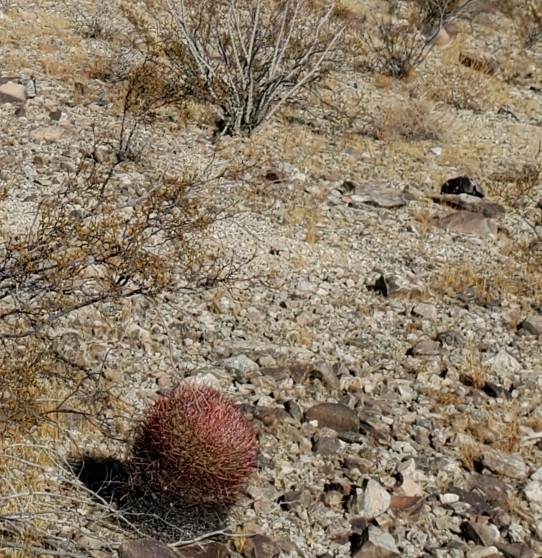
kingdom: Plantae
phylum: Tracheophyta
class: Magnoliopsida
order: Caryophyllales
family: Cactaceae
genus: Ferocactus
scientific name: Ferocactus cylindraceus
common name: California barrel cactus
